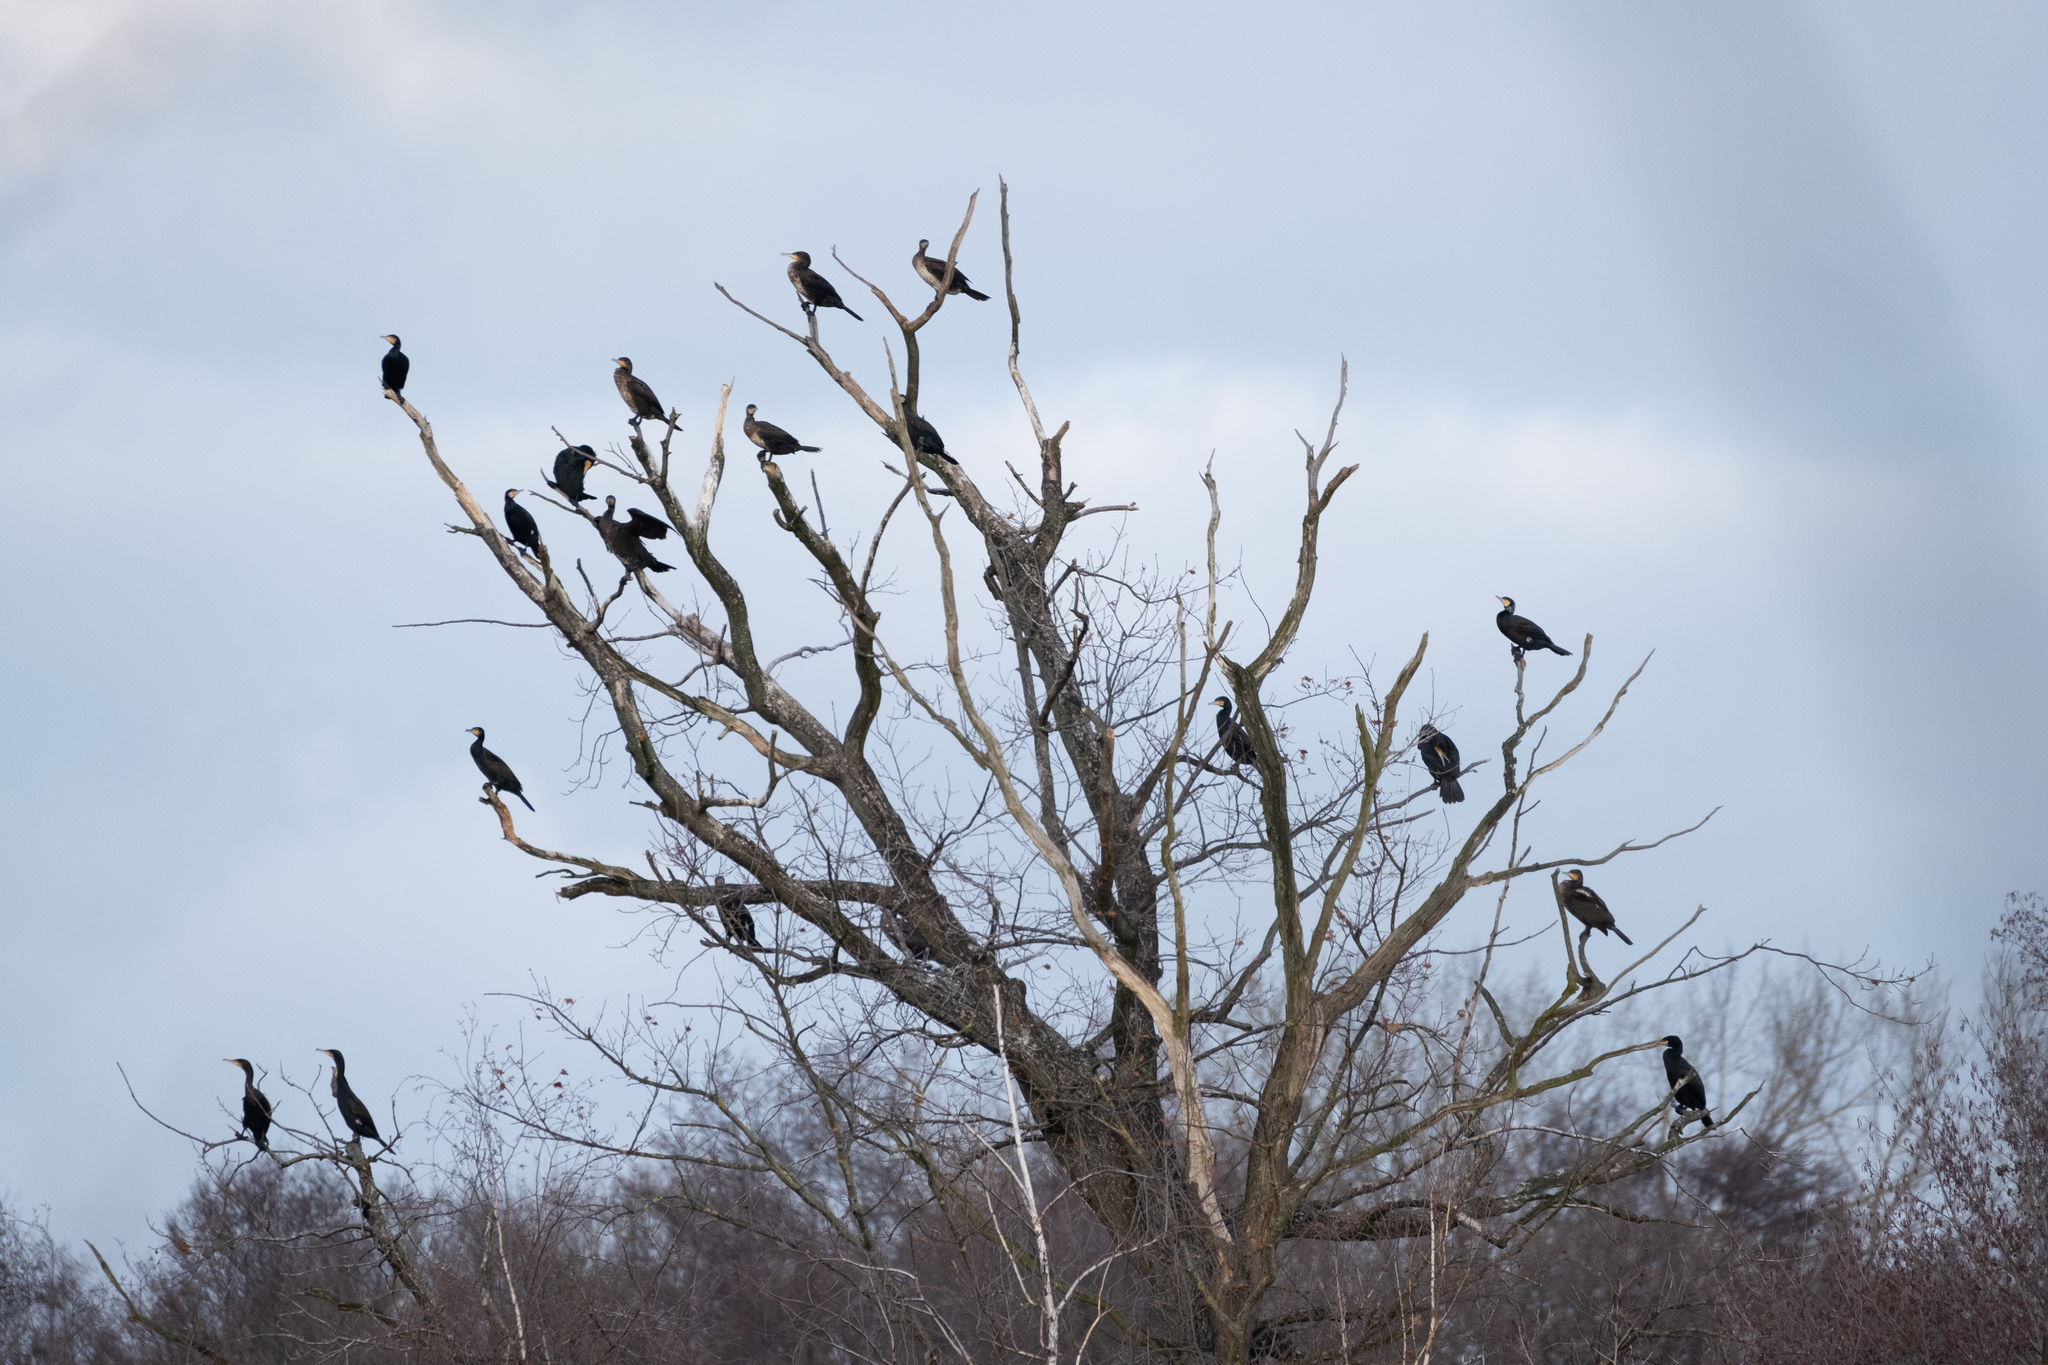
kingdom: Animalia
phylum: Chordata
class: Aves
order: Suliformes
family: Phalacrocoracidae
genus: Phalacrocorax
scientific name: Phalacrocorax carbo
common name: Great cormorant
